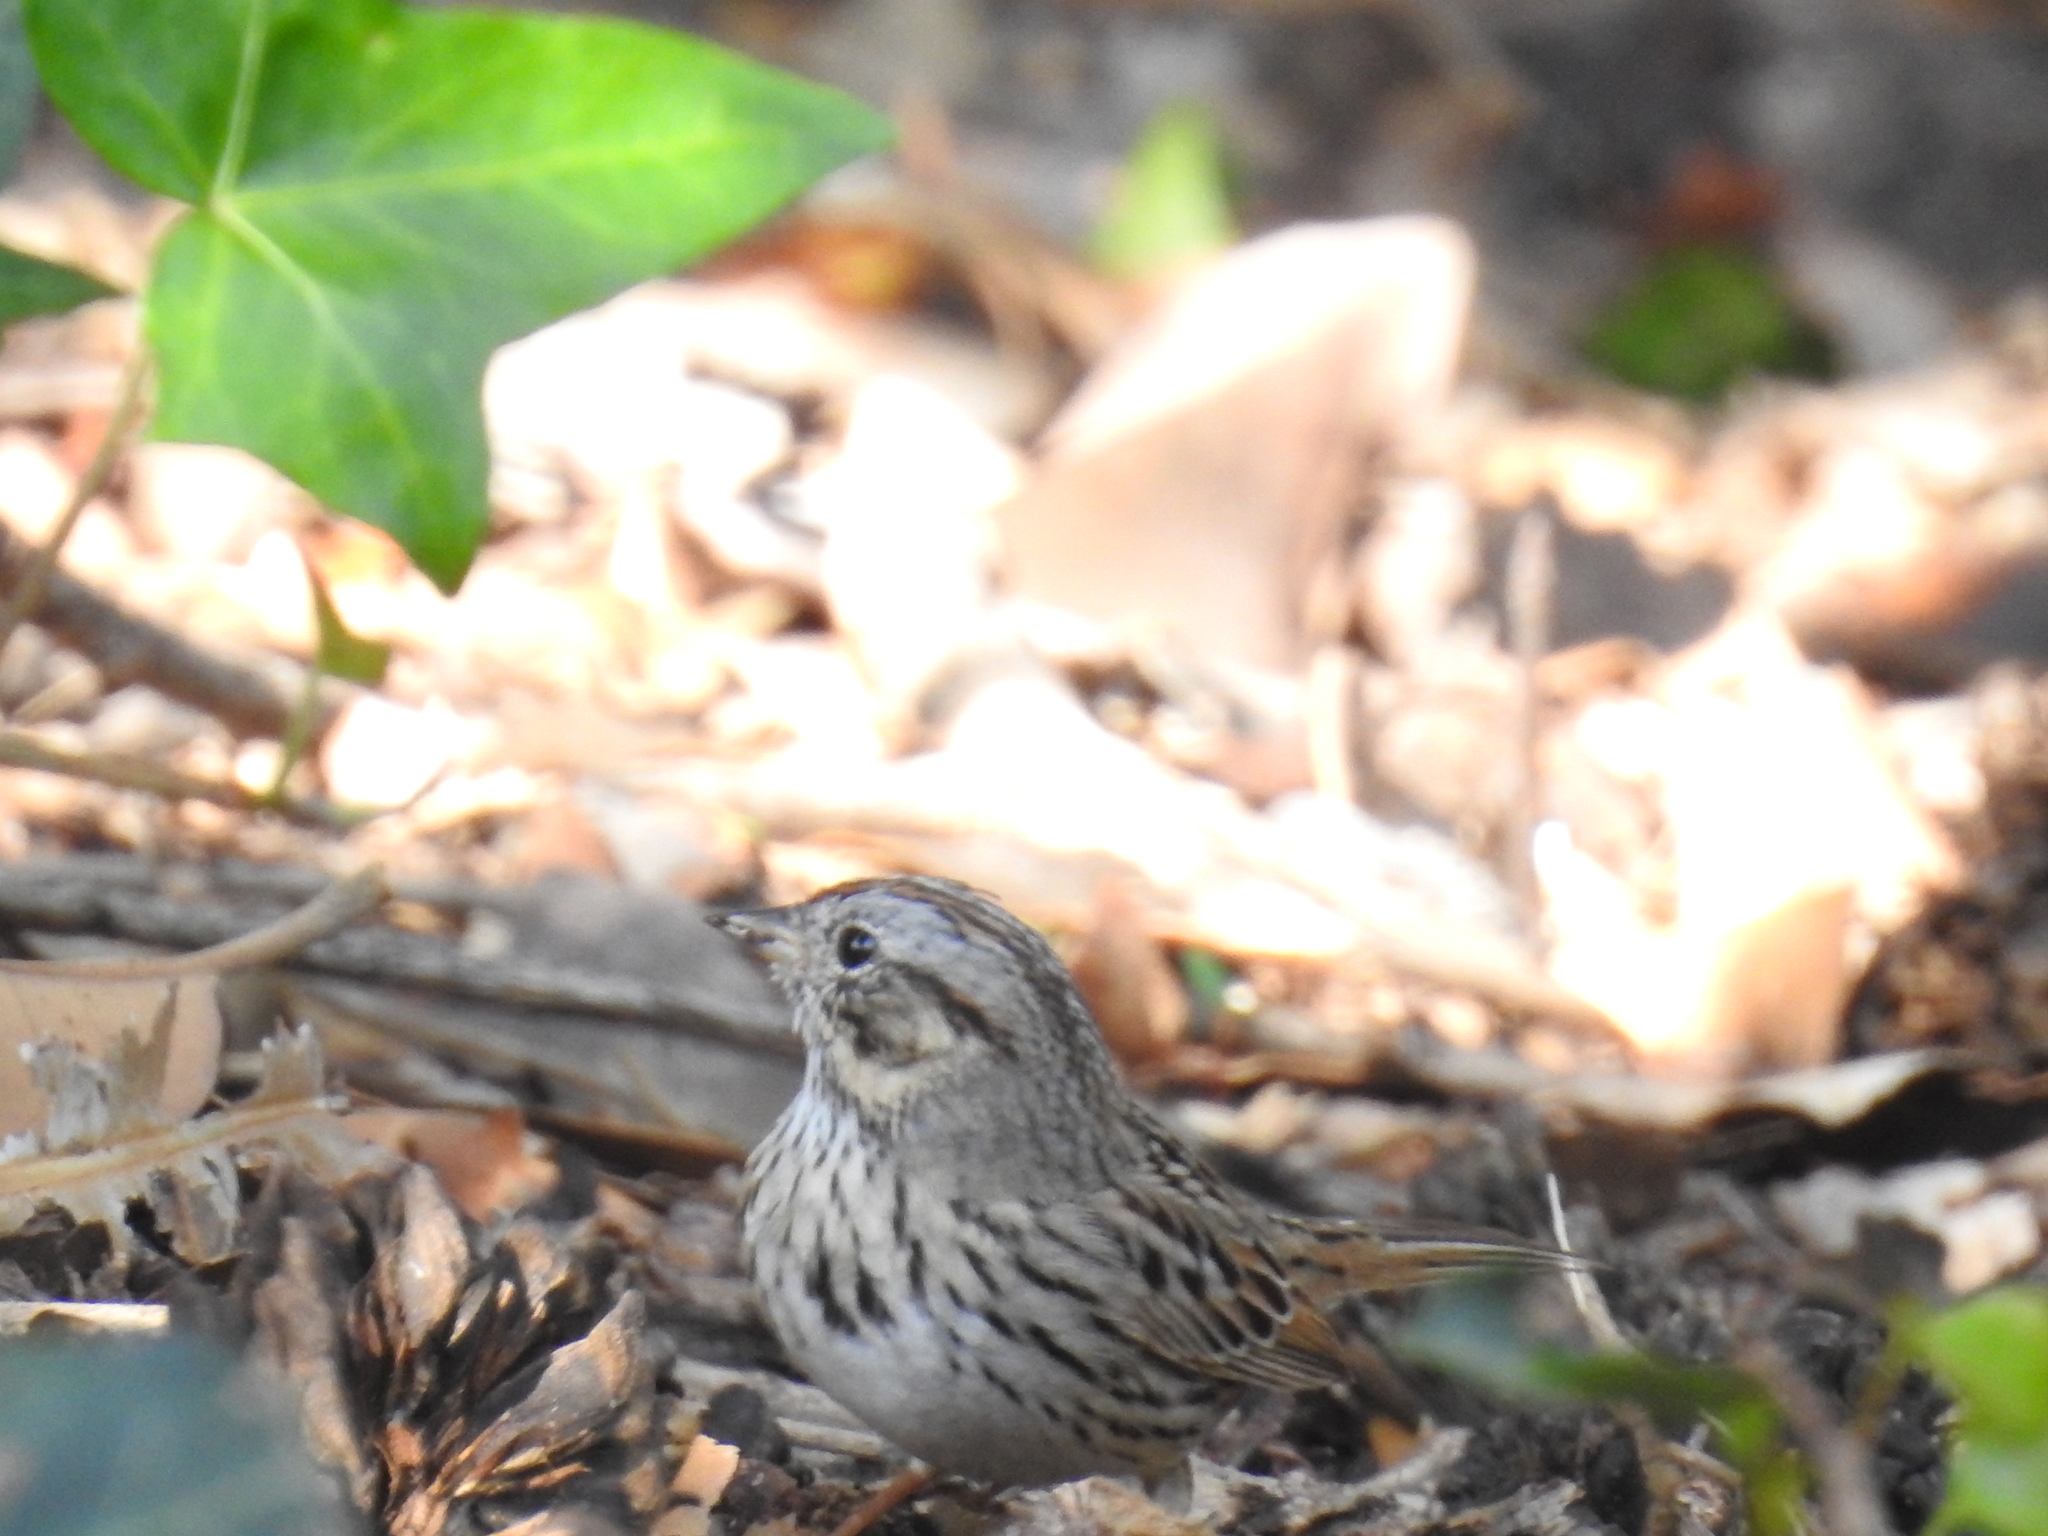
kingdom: Animalia
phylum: Chordata
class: Aves
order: Passeriformes
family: Passerellidae
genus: Melospiza
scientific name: Melospiza lincolnii
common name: Lincoln's sparrow
